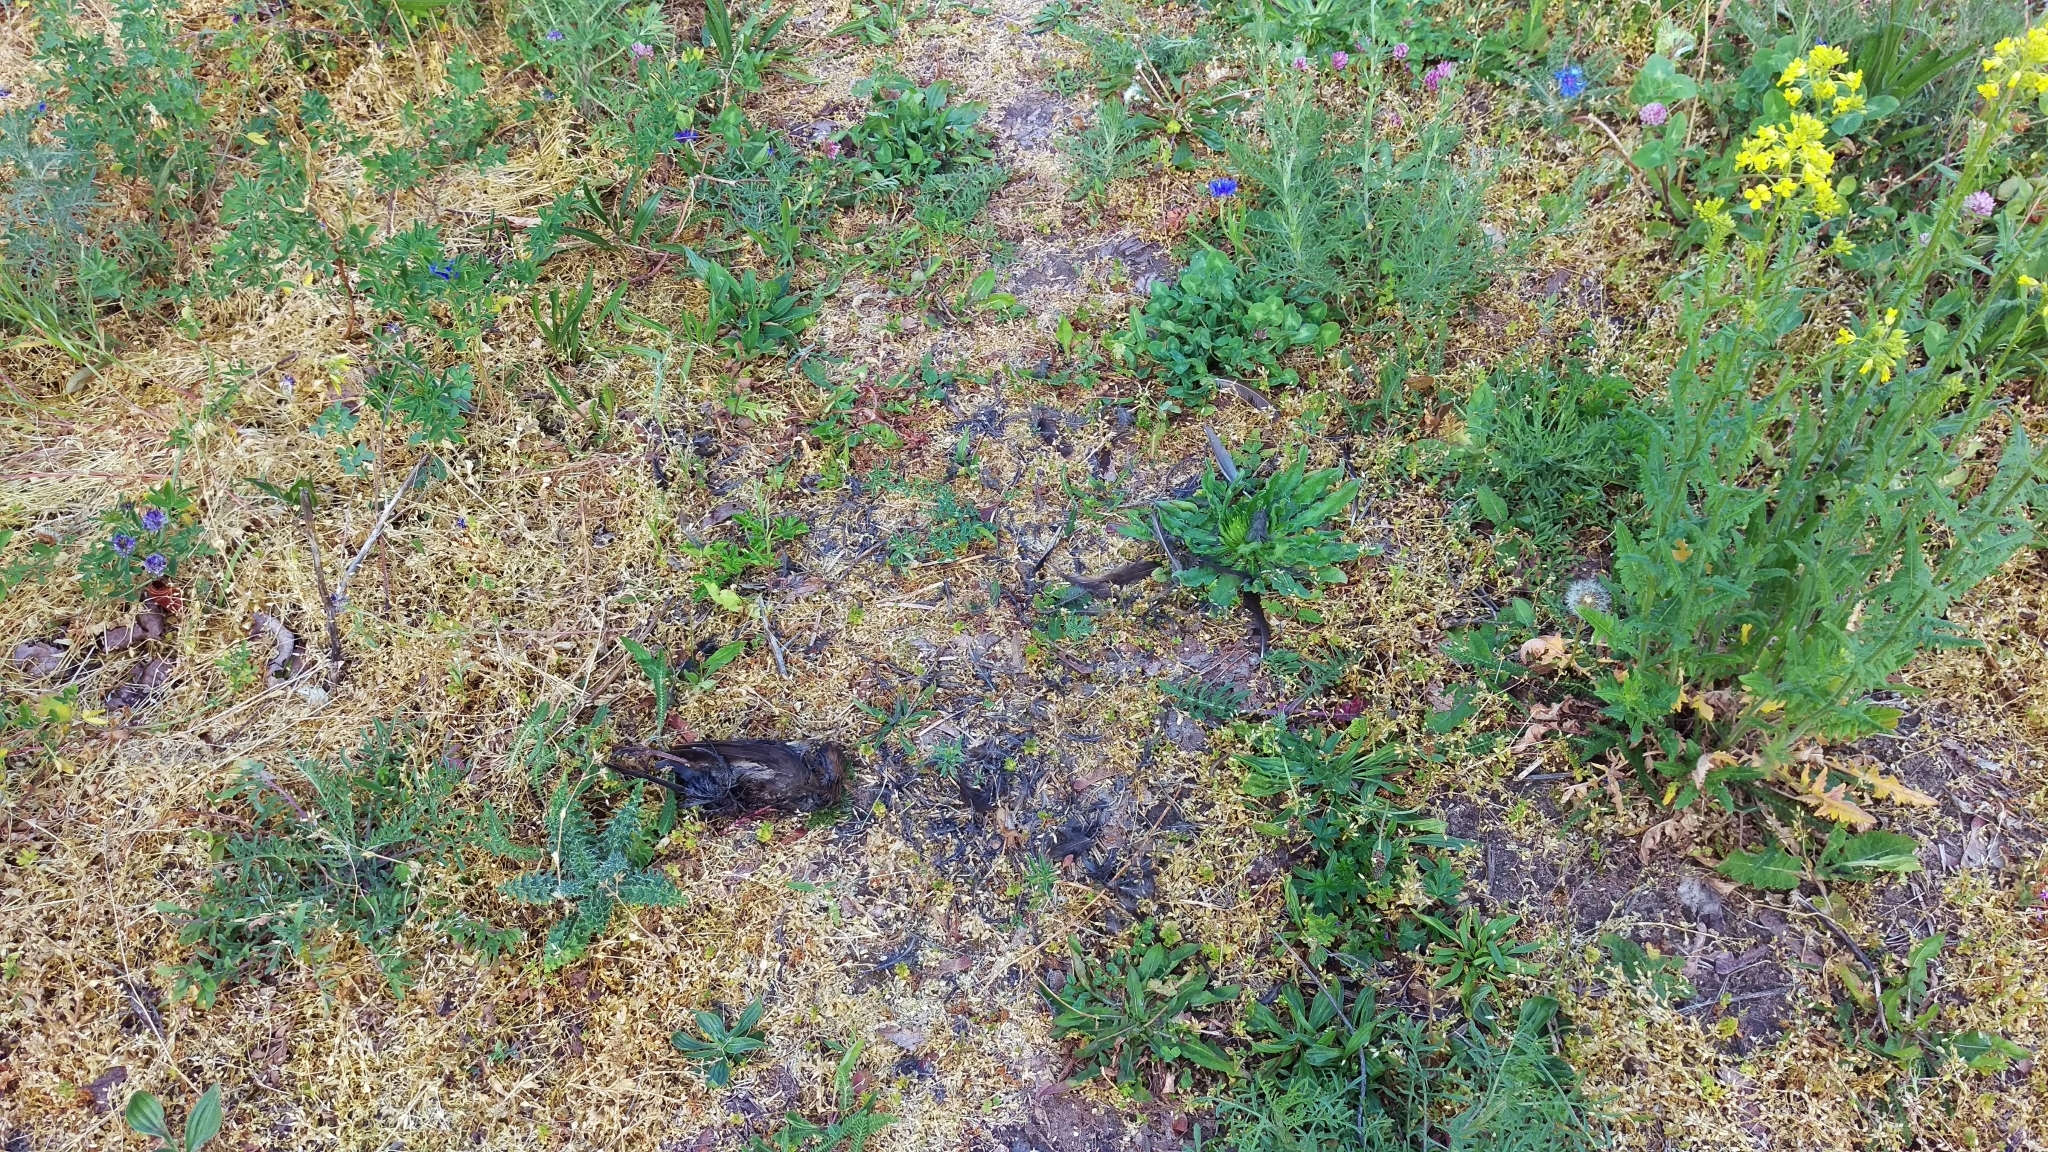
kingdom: Animalia
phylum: Chordata
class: Aves
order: Passeriformes
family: Turdidae
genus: Turdus
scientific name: Turdus merula
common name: Common blackbird
